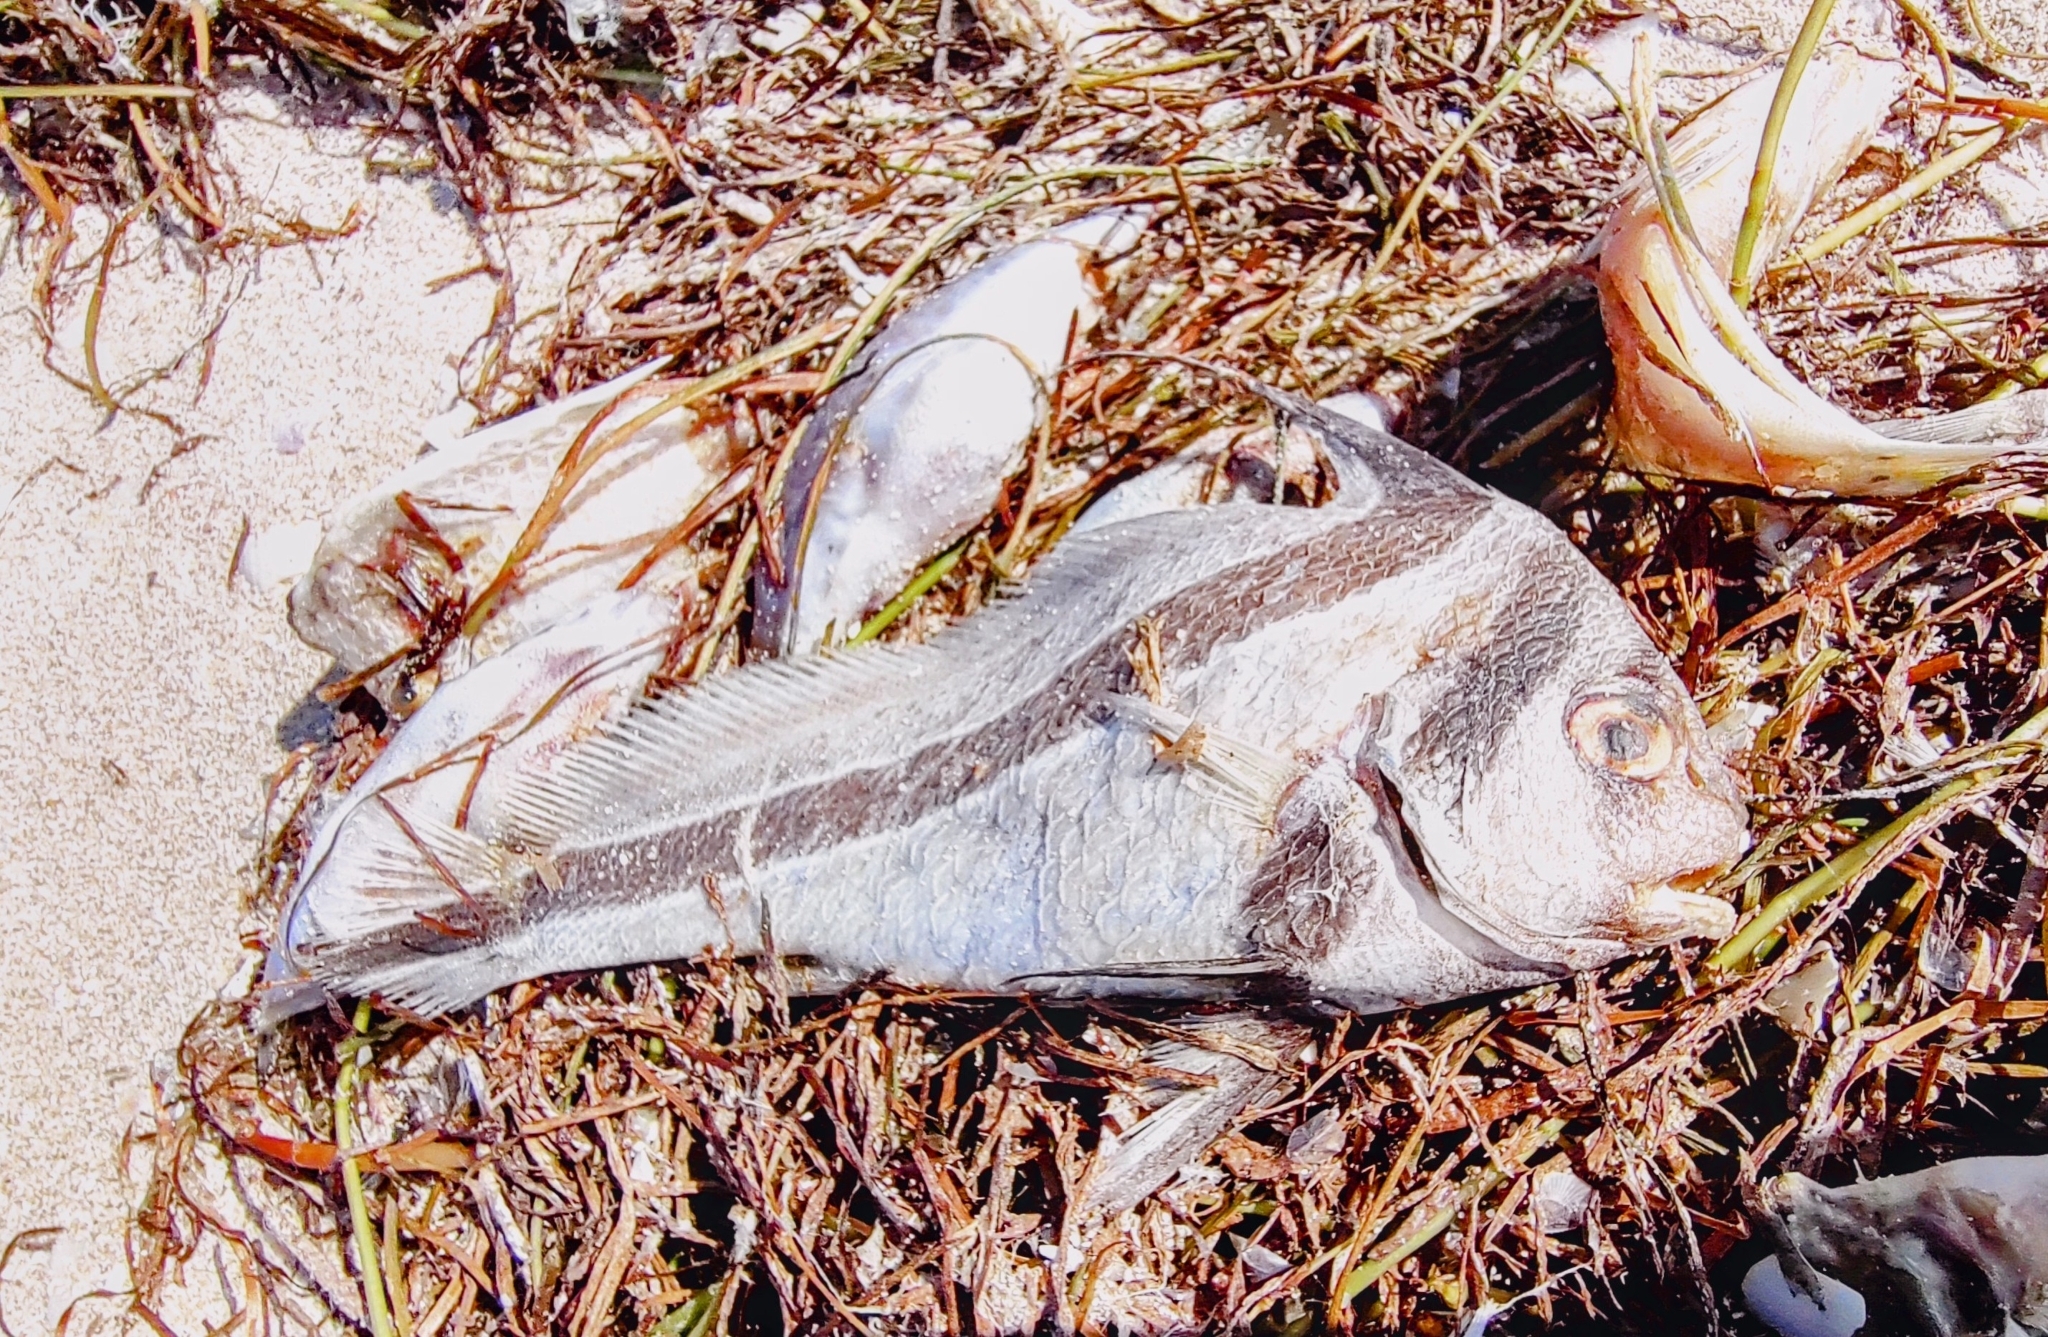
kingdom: Animalia
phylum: Chordata
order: Perciformes
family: Sciaenidae
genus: Equetus
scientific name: Equetus lanceolatus
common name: Jackknife fish
